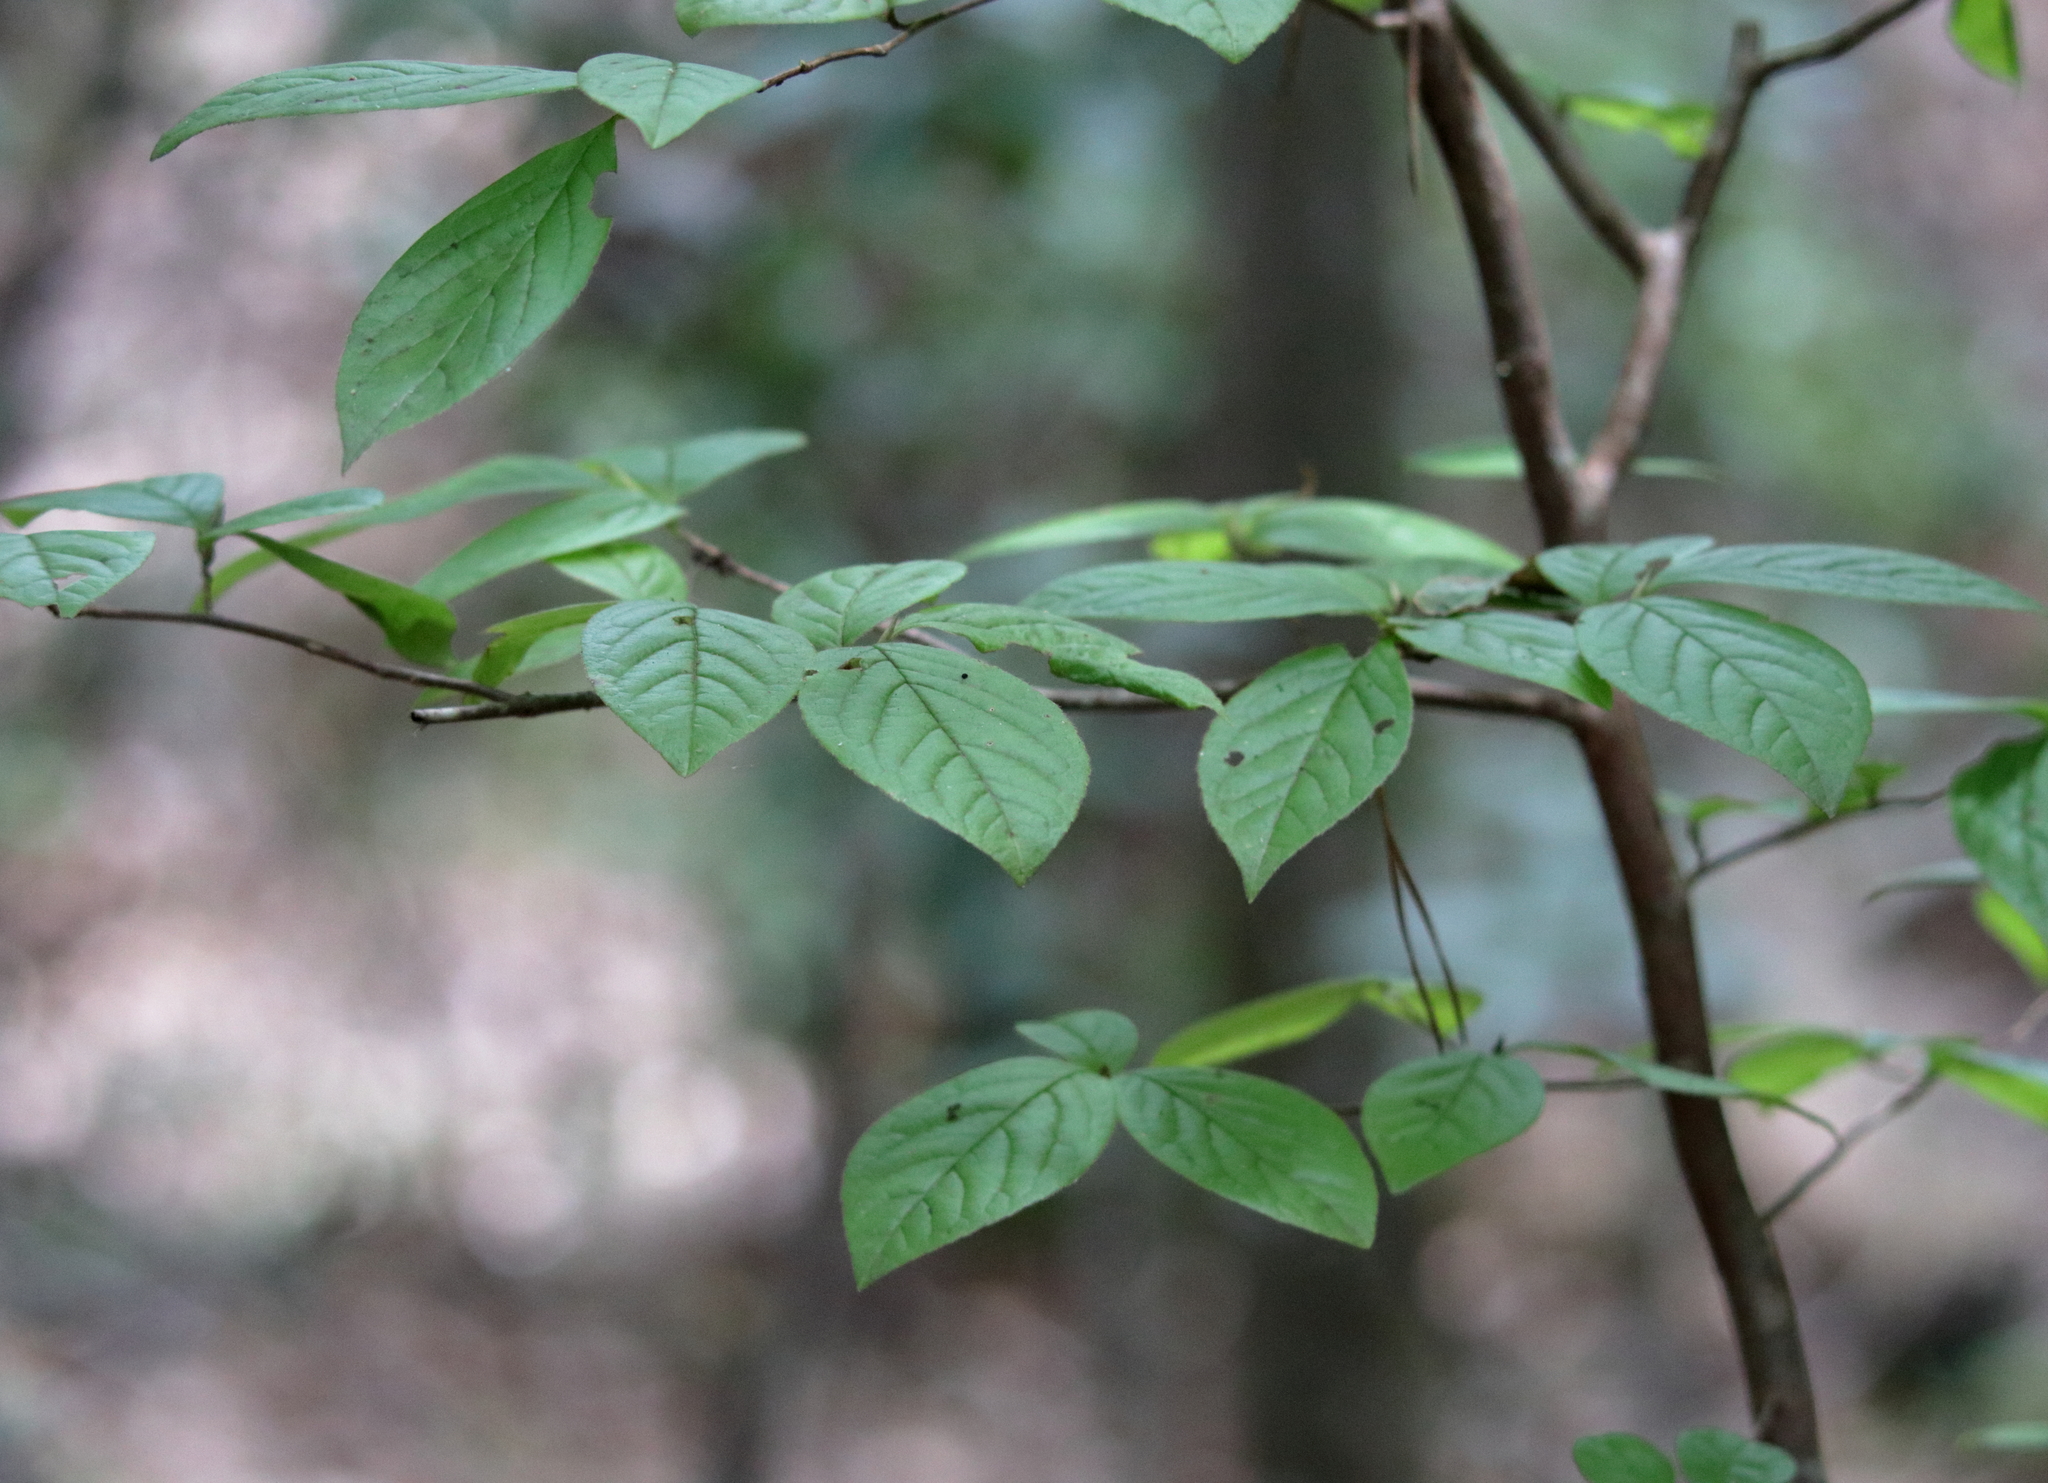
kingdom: Plantae
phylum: Tracheophyta
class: Magnoliopsida
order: Ericales
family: Theaceae
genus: Stewartia
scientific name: Stewartia malacodendron
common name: Virginia stewartia
